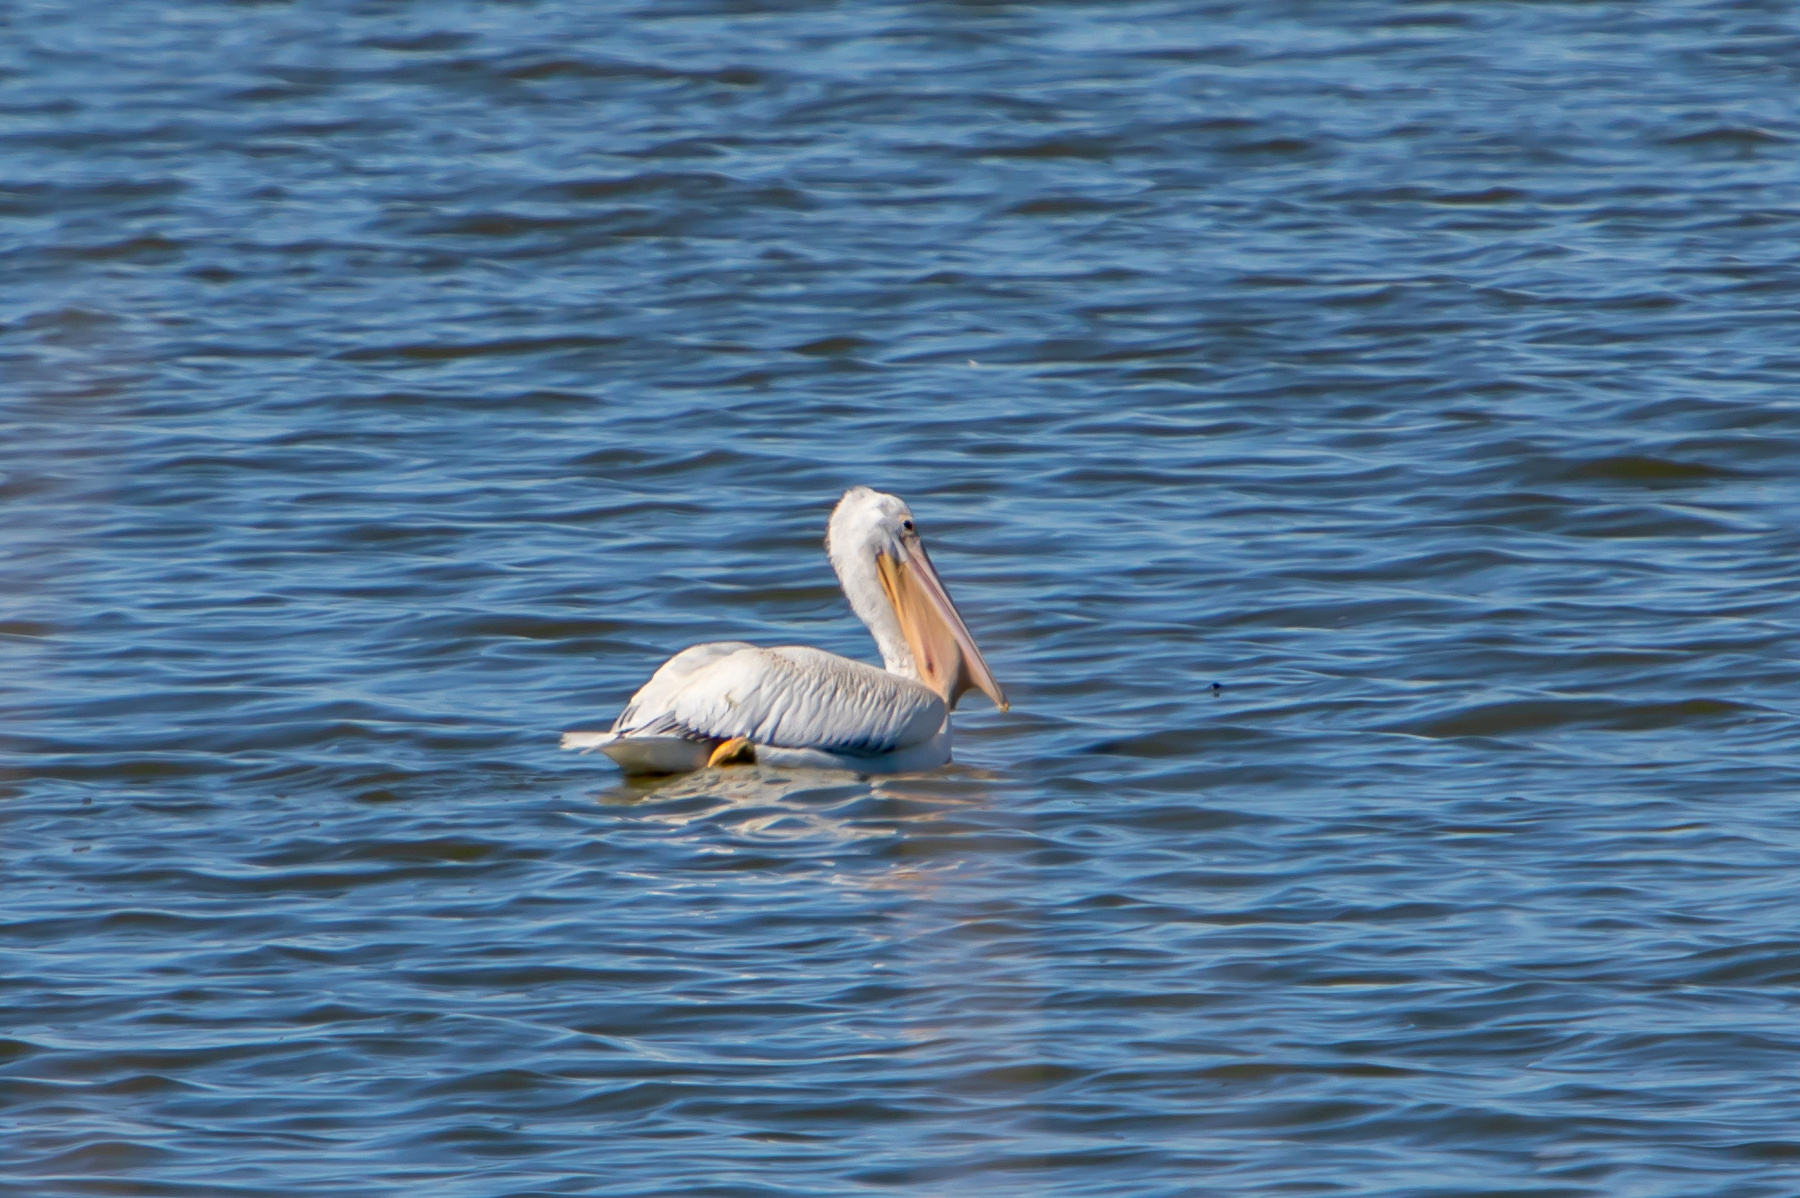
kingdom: Animalia
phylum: Chordata
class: Aves
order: Pelecaniformes
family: Pelecanidae
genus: Pelecanus
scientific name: Pelecanus erythrorhynchos
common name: American white pelican
